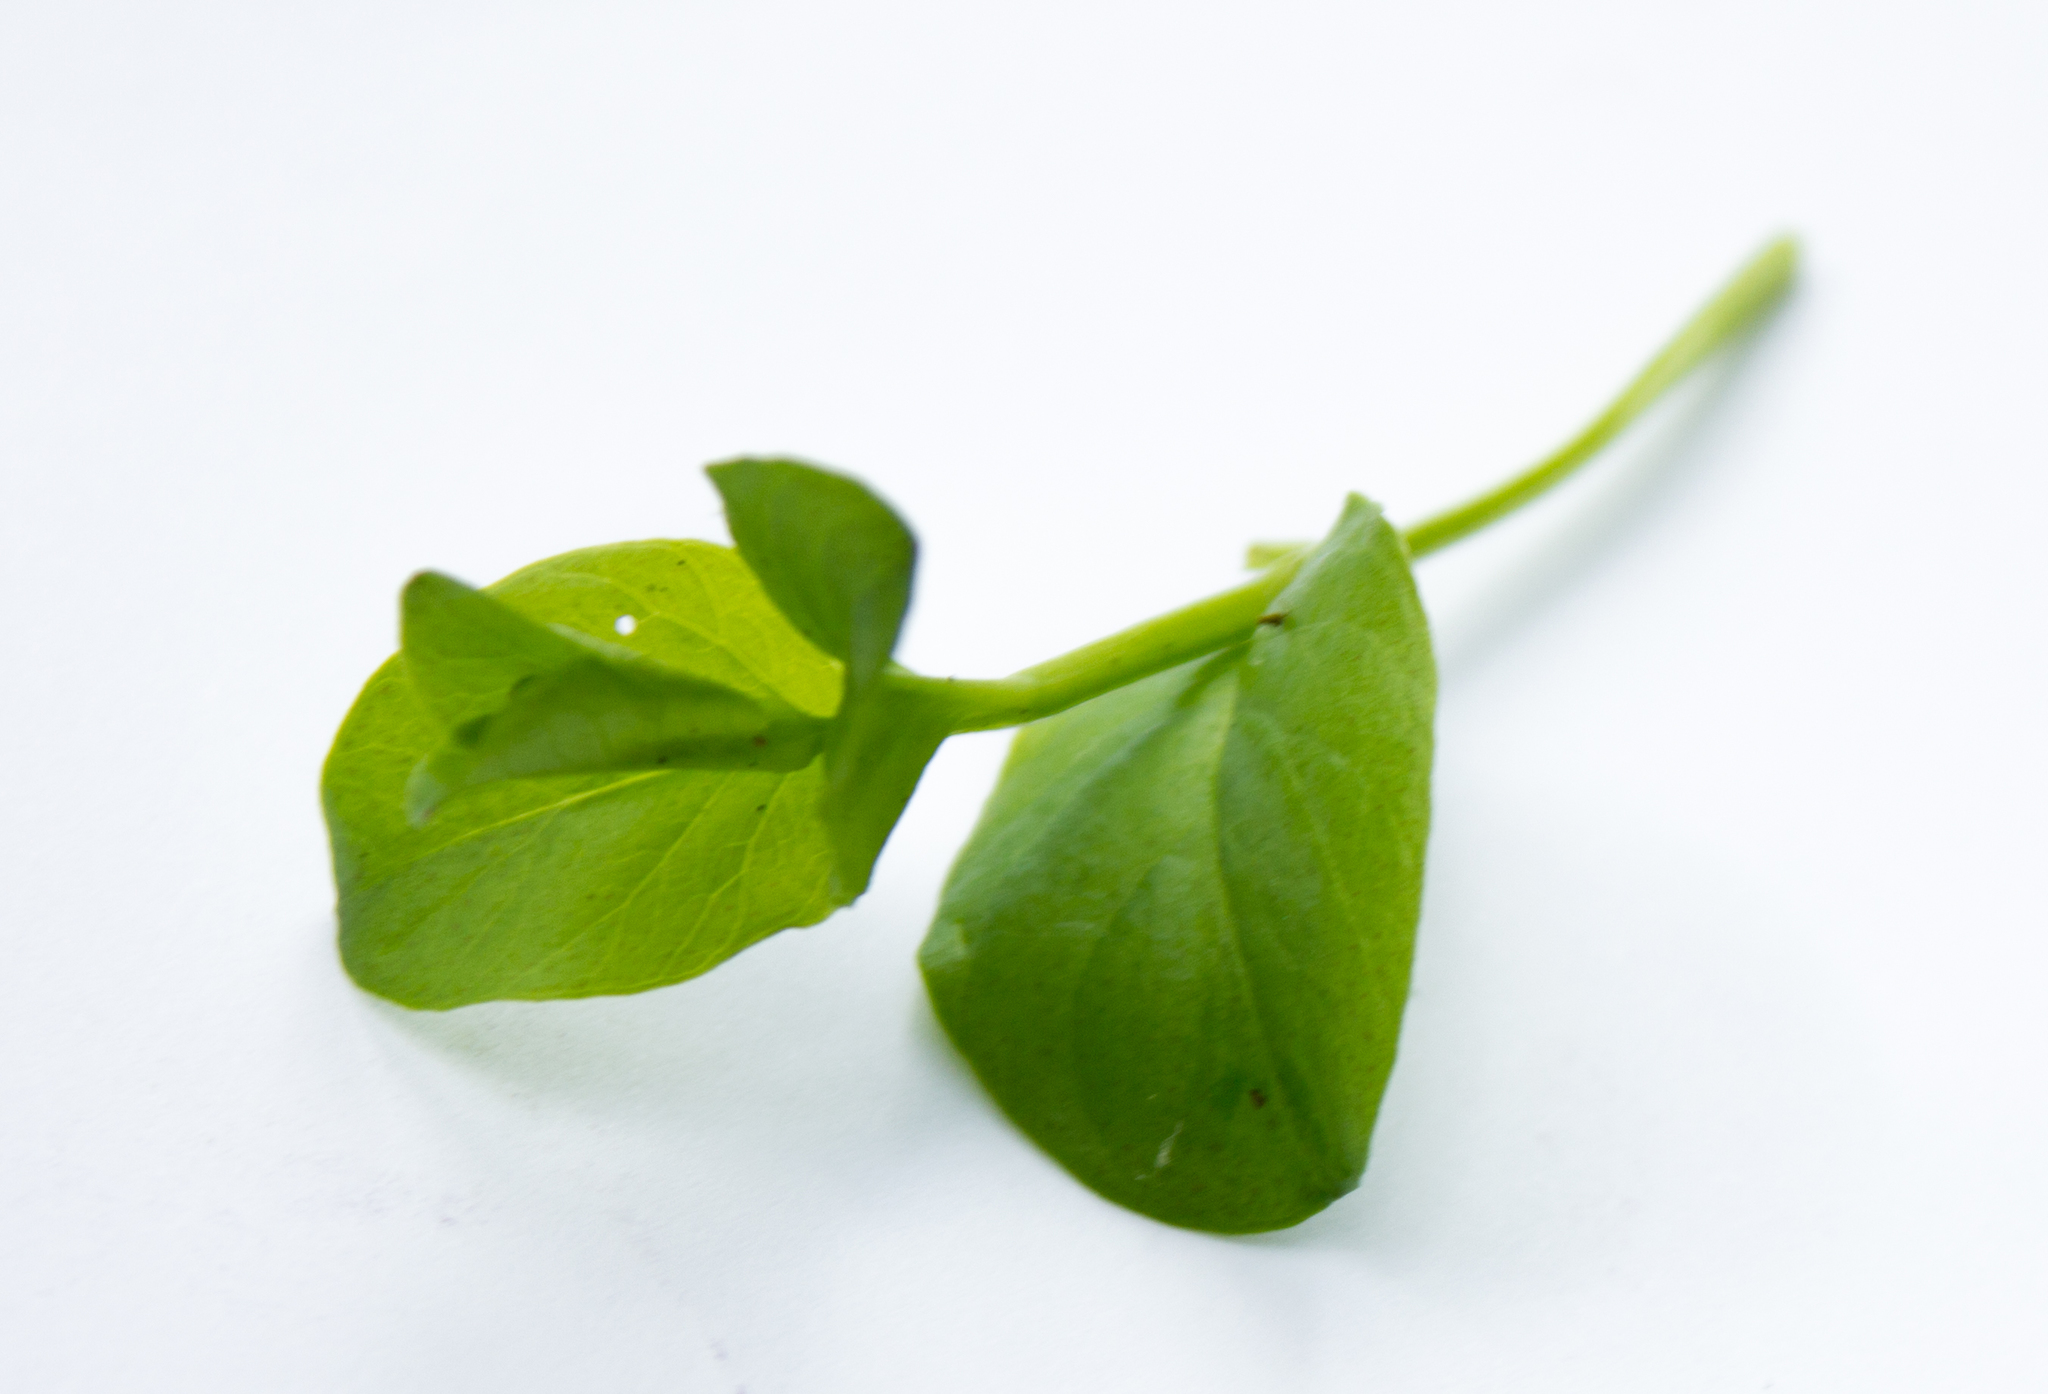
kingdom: Plantae
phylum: Tracheophyta
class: Magnoliopsida
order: Ericales
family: Primulaceae
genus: Lysimachia
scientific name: Lysimachia nummularia
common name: Moneywort
